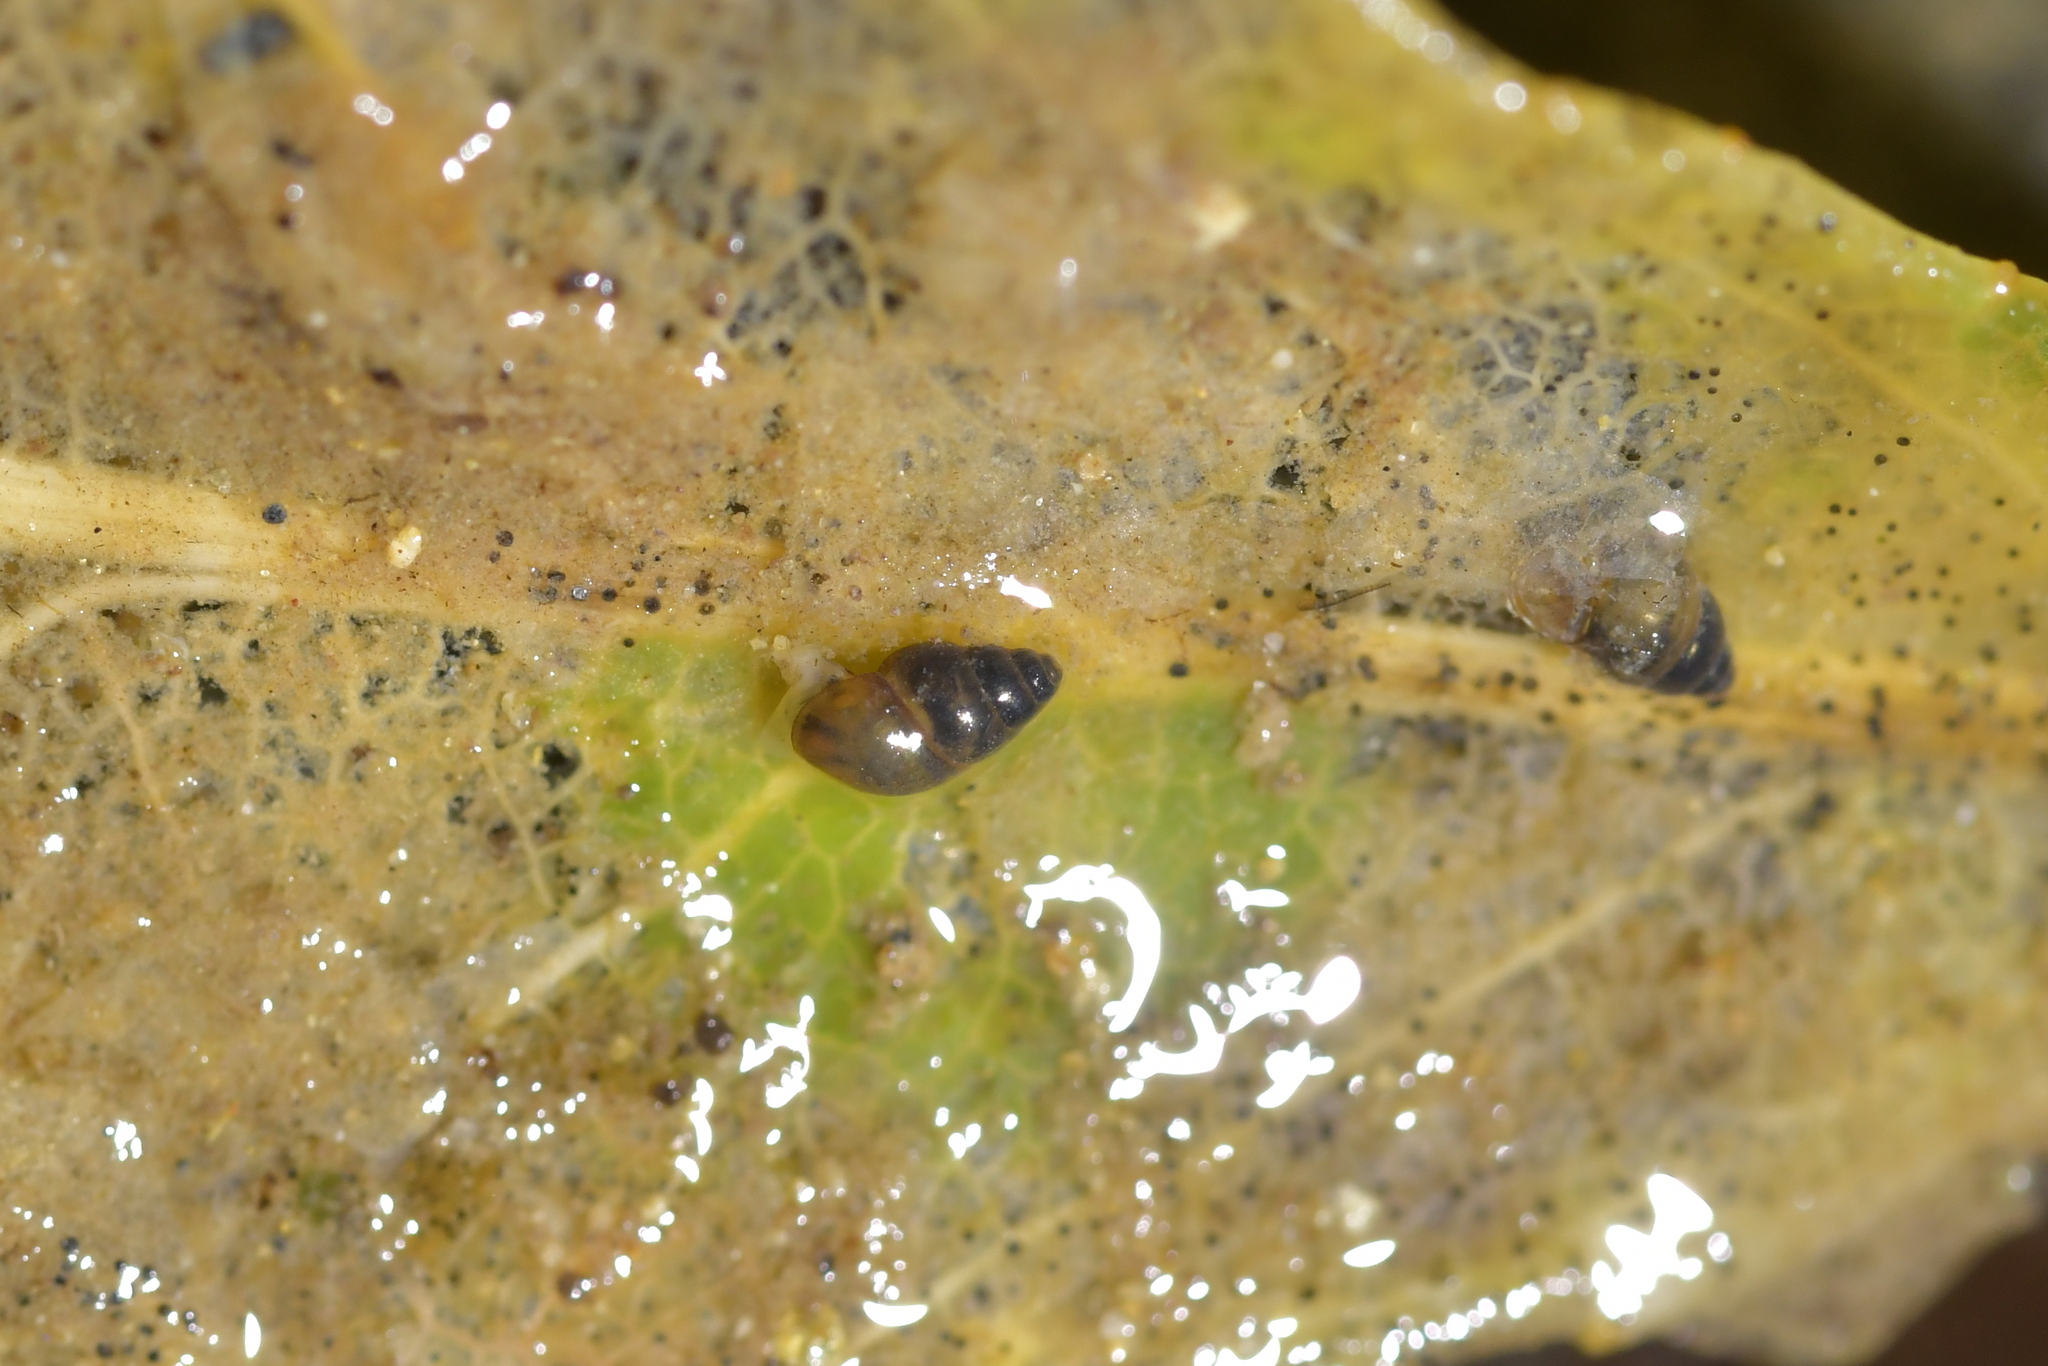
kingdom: Animalia
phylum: Mollusca
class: Gastropoda
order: Littorinimorpha
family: Tateidae
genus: Potamopyrgus
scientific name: Potamopyrgus antipodarum
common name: Jenkins' spire snail
